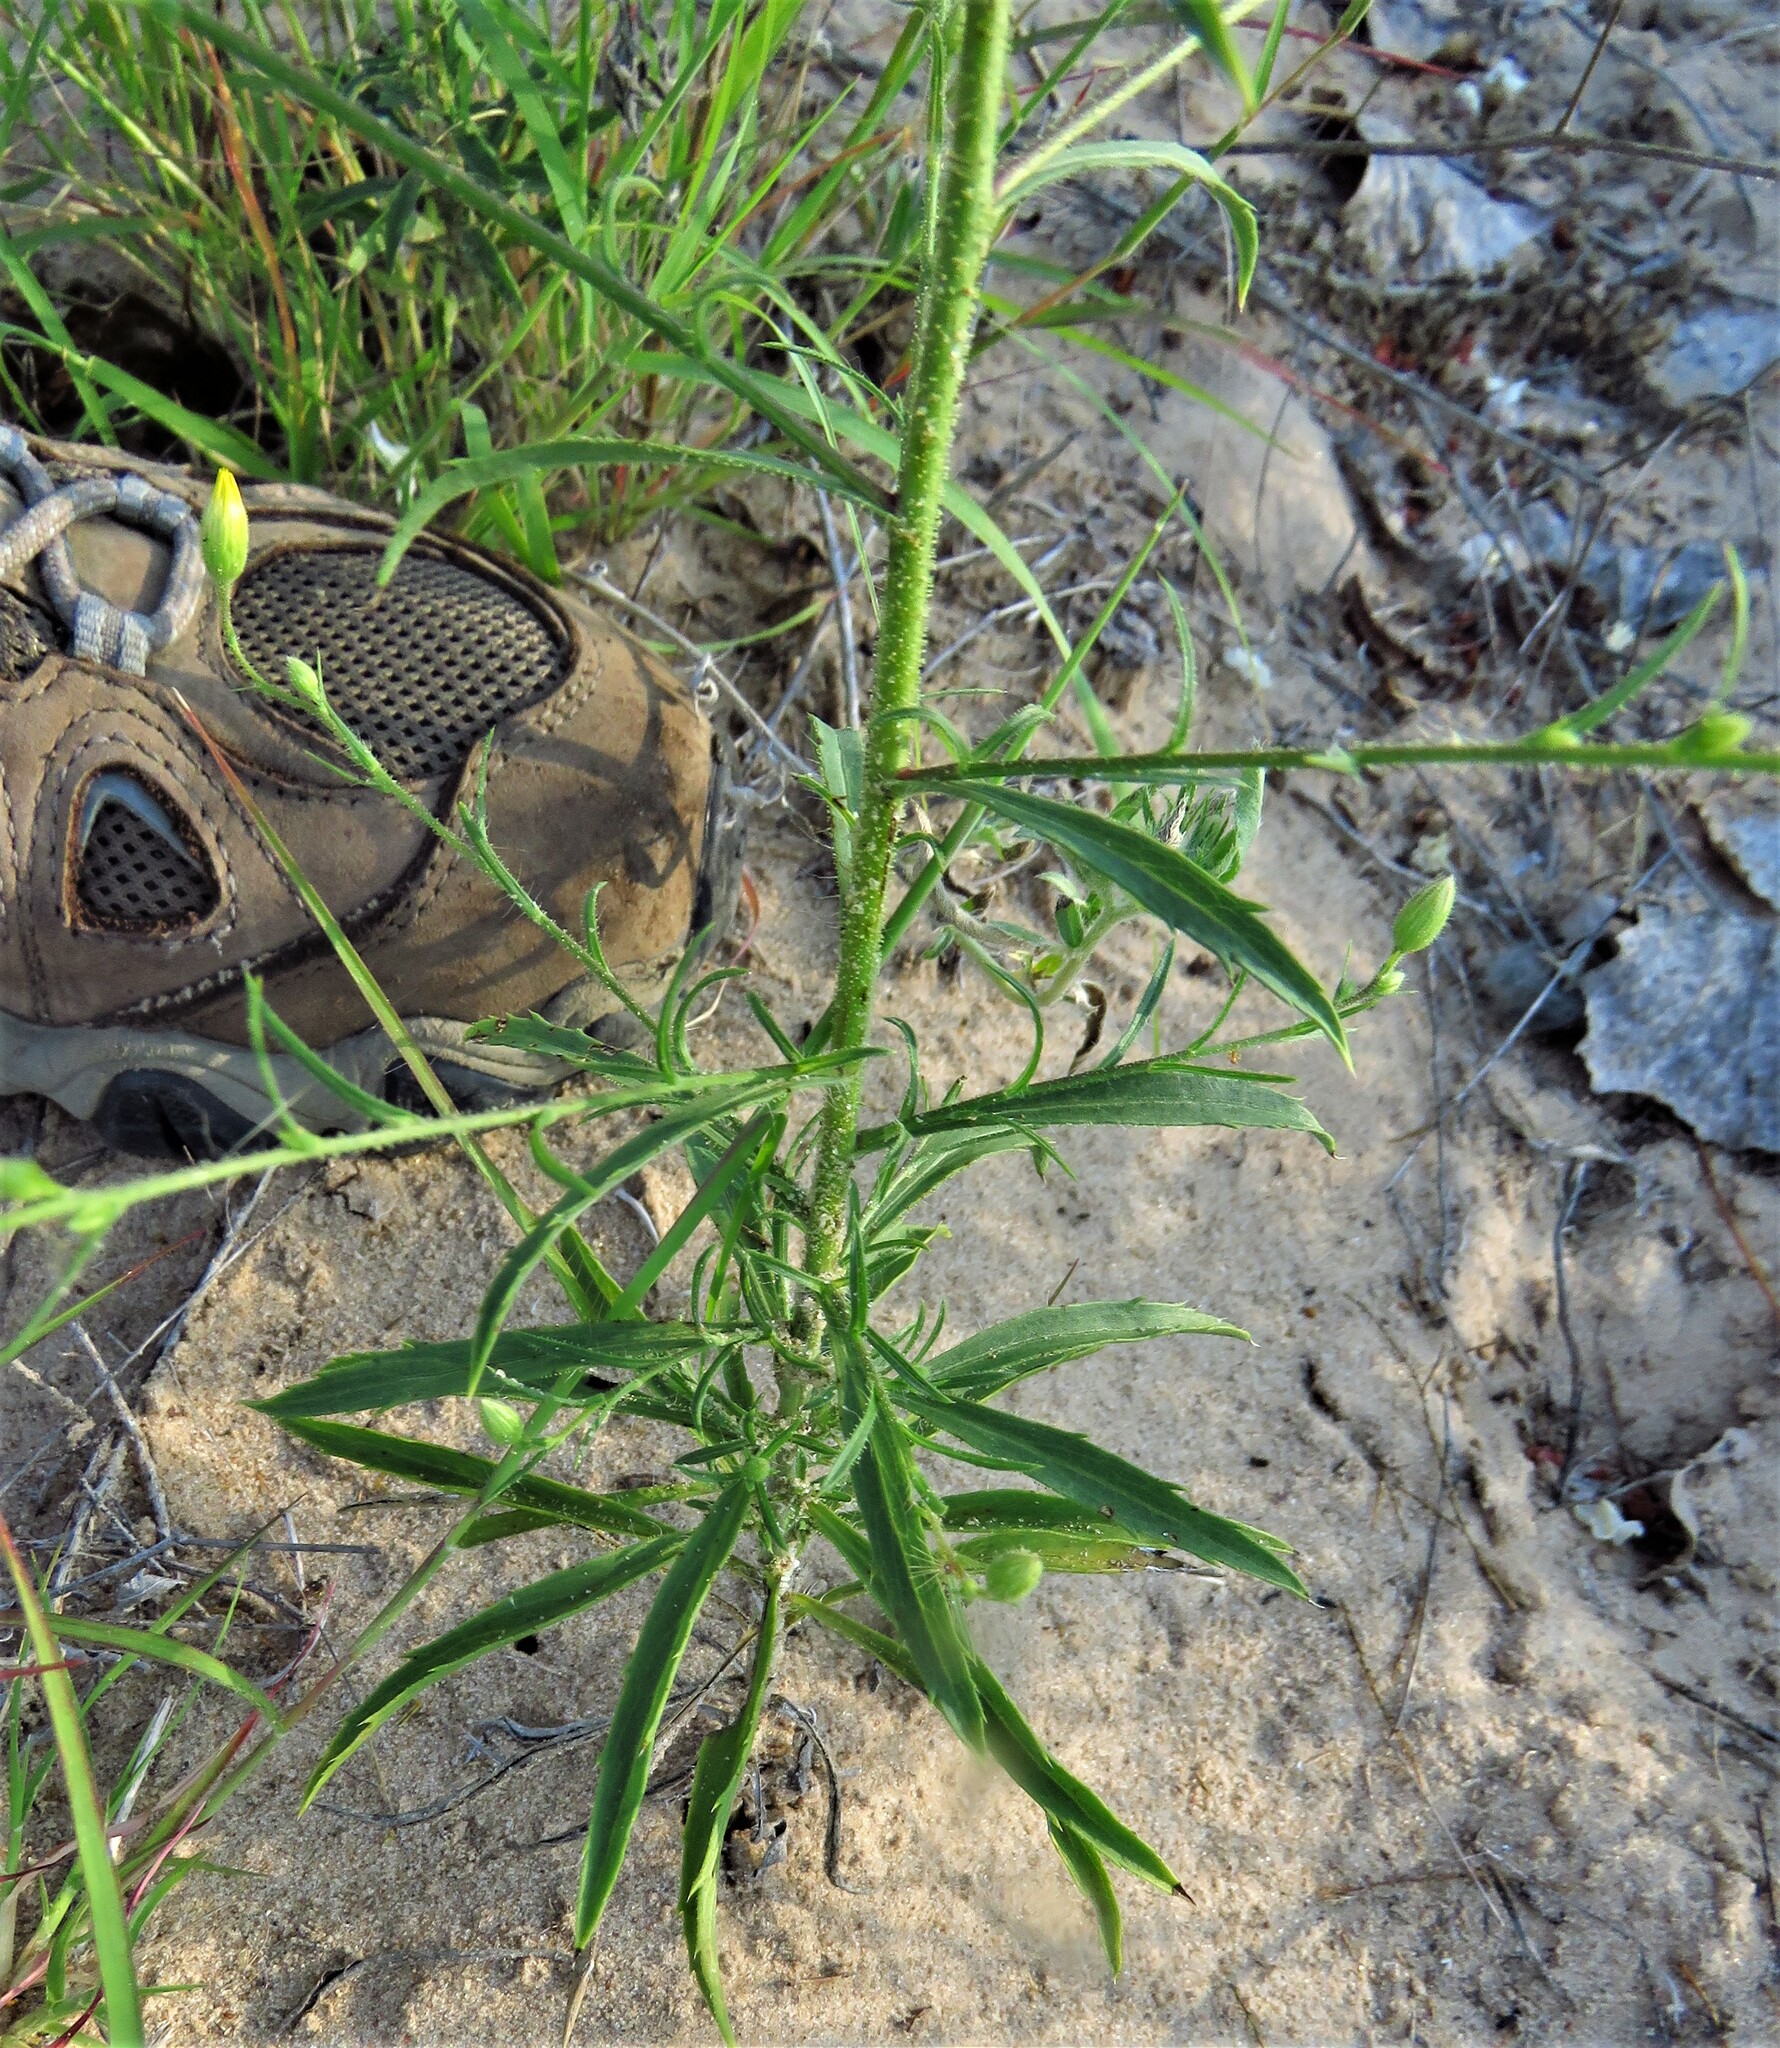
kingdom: Plantae
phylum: Tracheophyta
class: Magnoliopsida
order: Asterales
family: Asteraceae
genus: Croptilon
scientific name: Croptilon divaricatum
